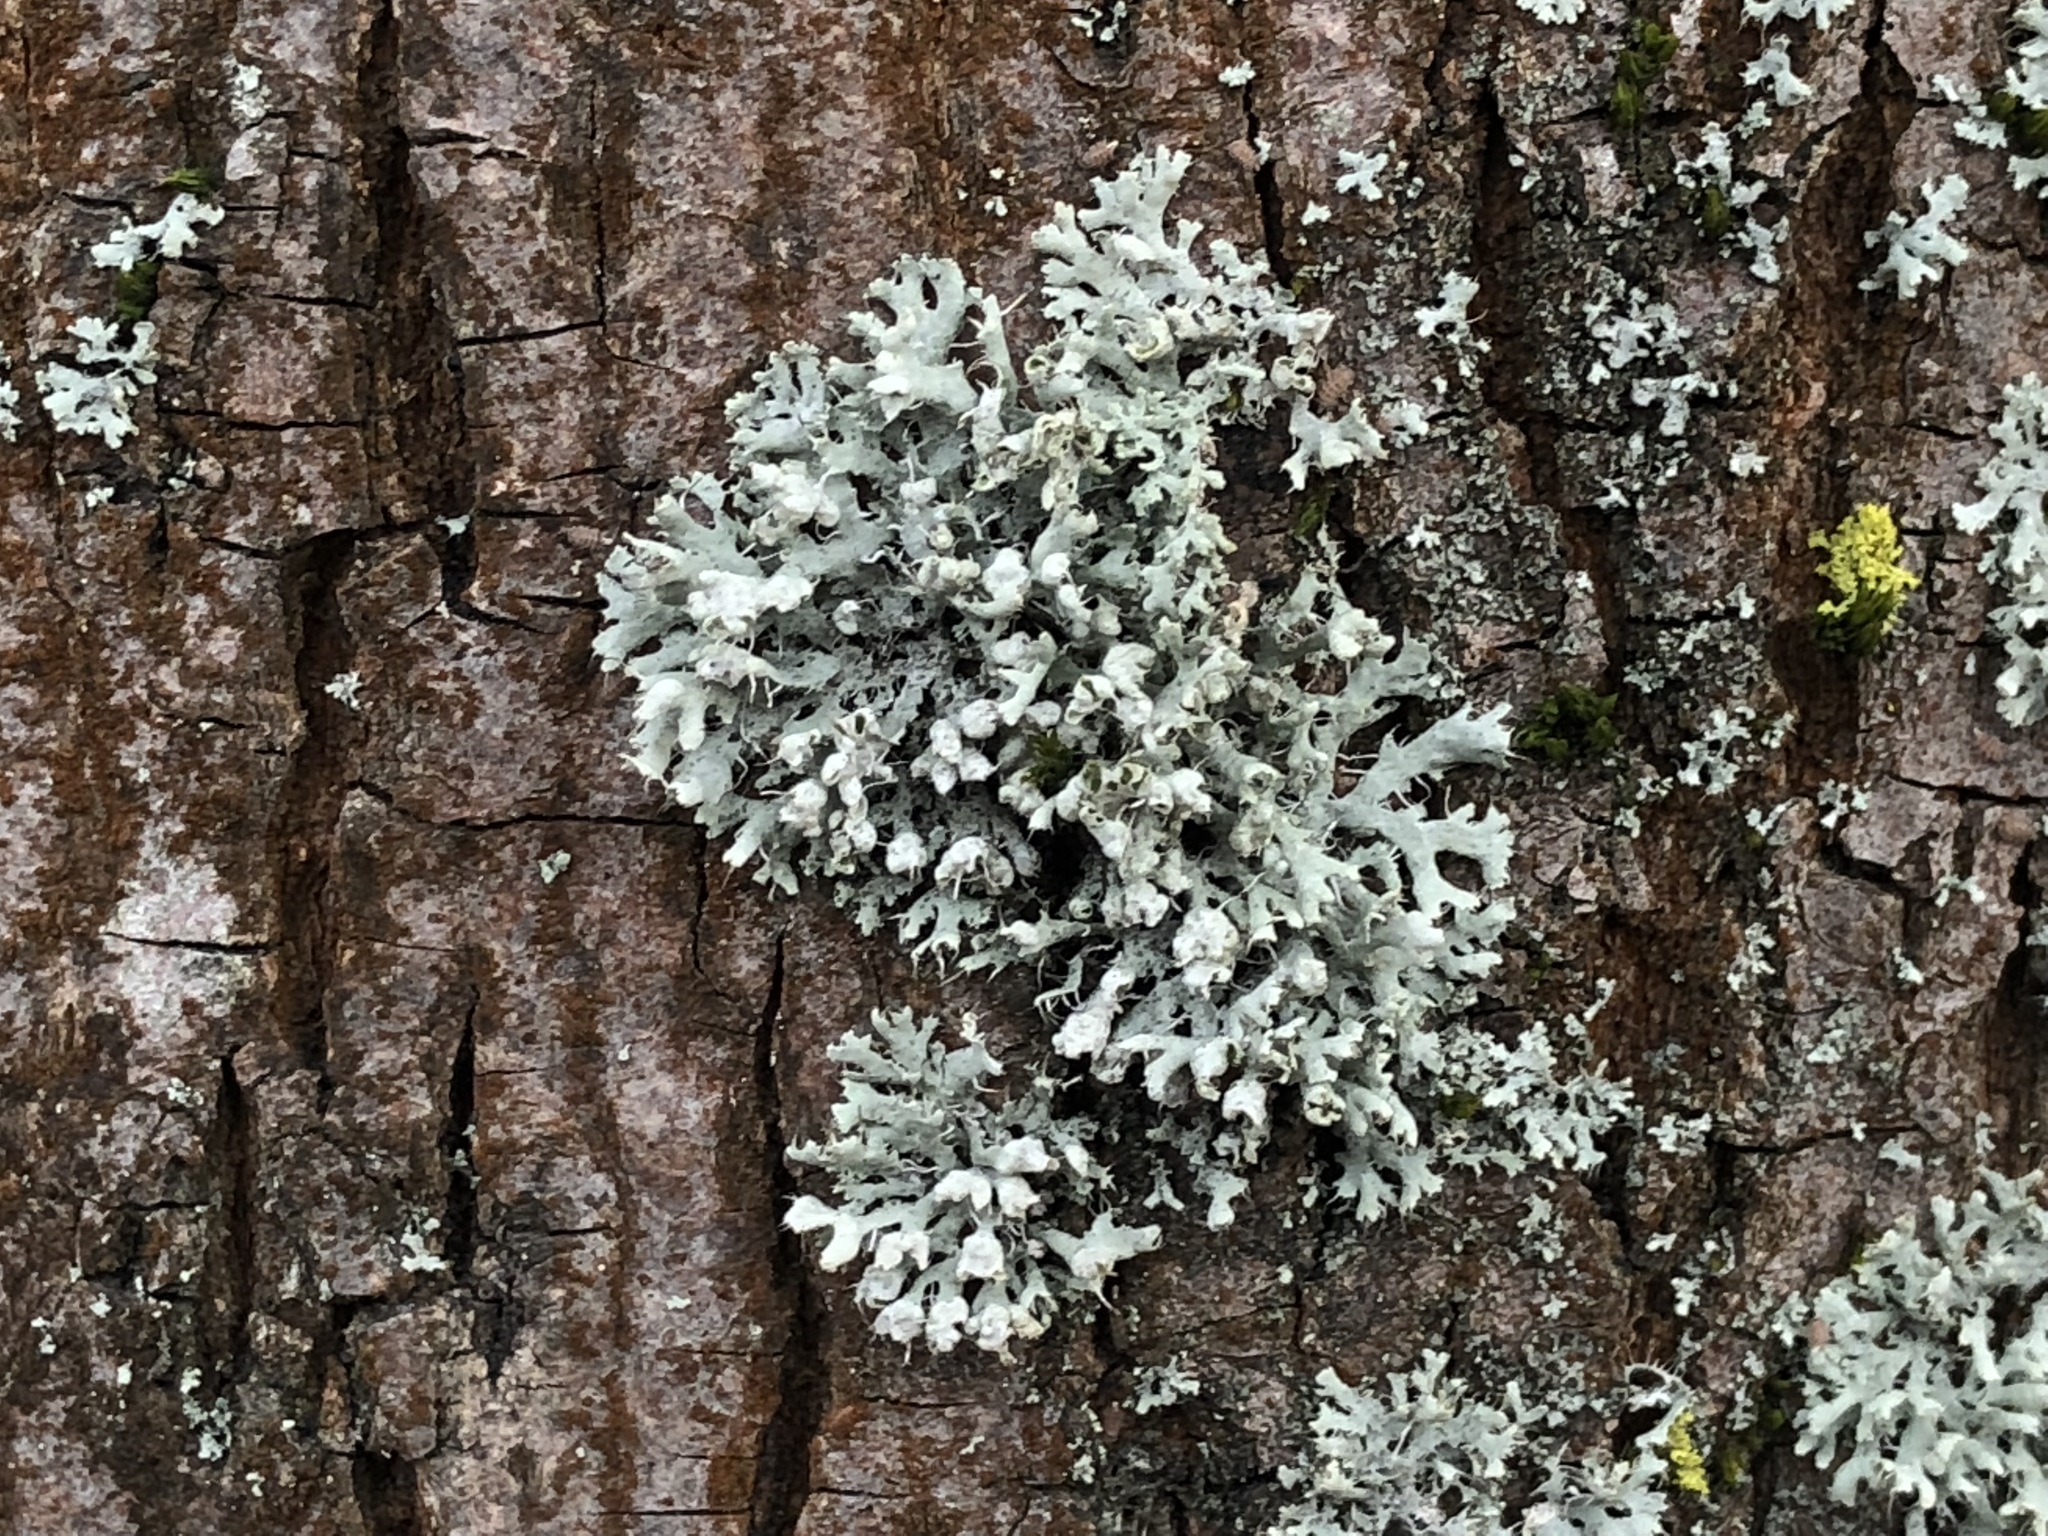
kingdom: Fungi
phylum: Ascomycota
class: Lecanoromycetes
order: Caliciales
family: Physciaceae
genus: Physcia
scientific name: Physcia adscendens
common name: Hooded rosette lichen
